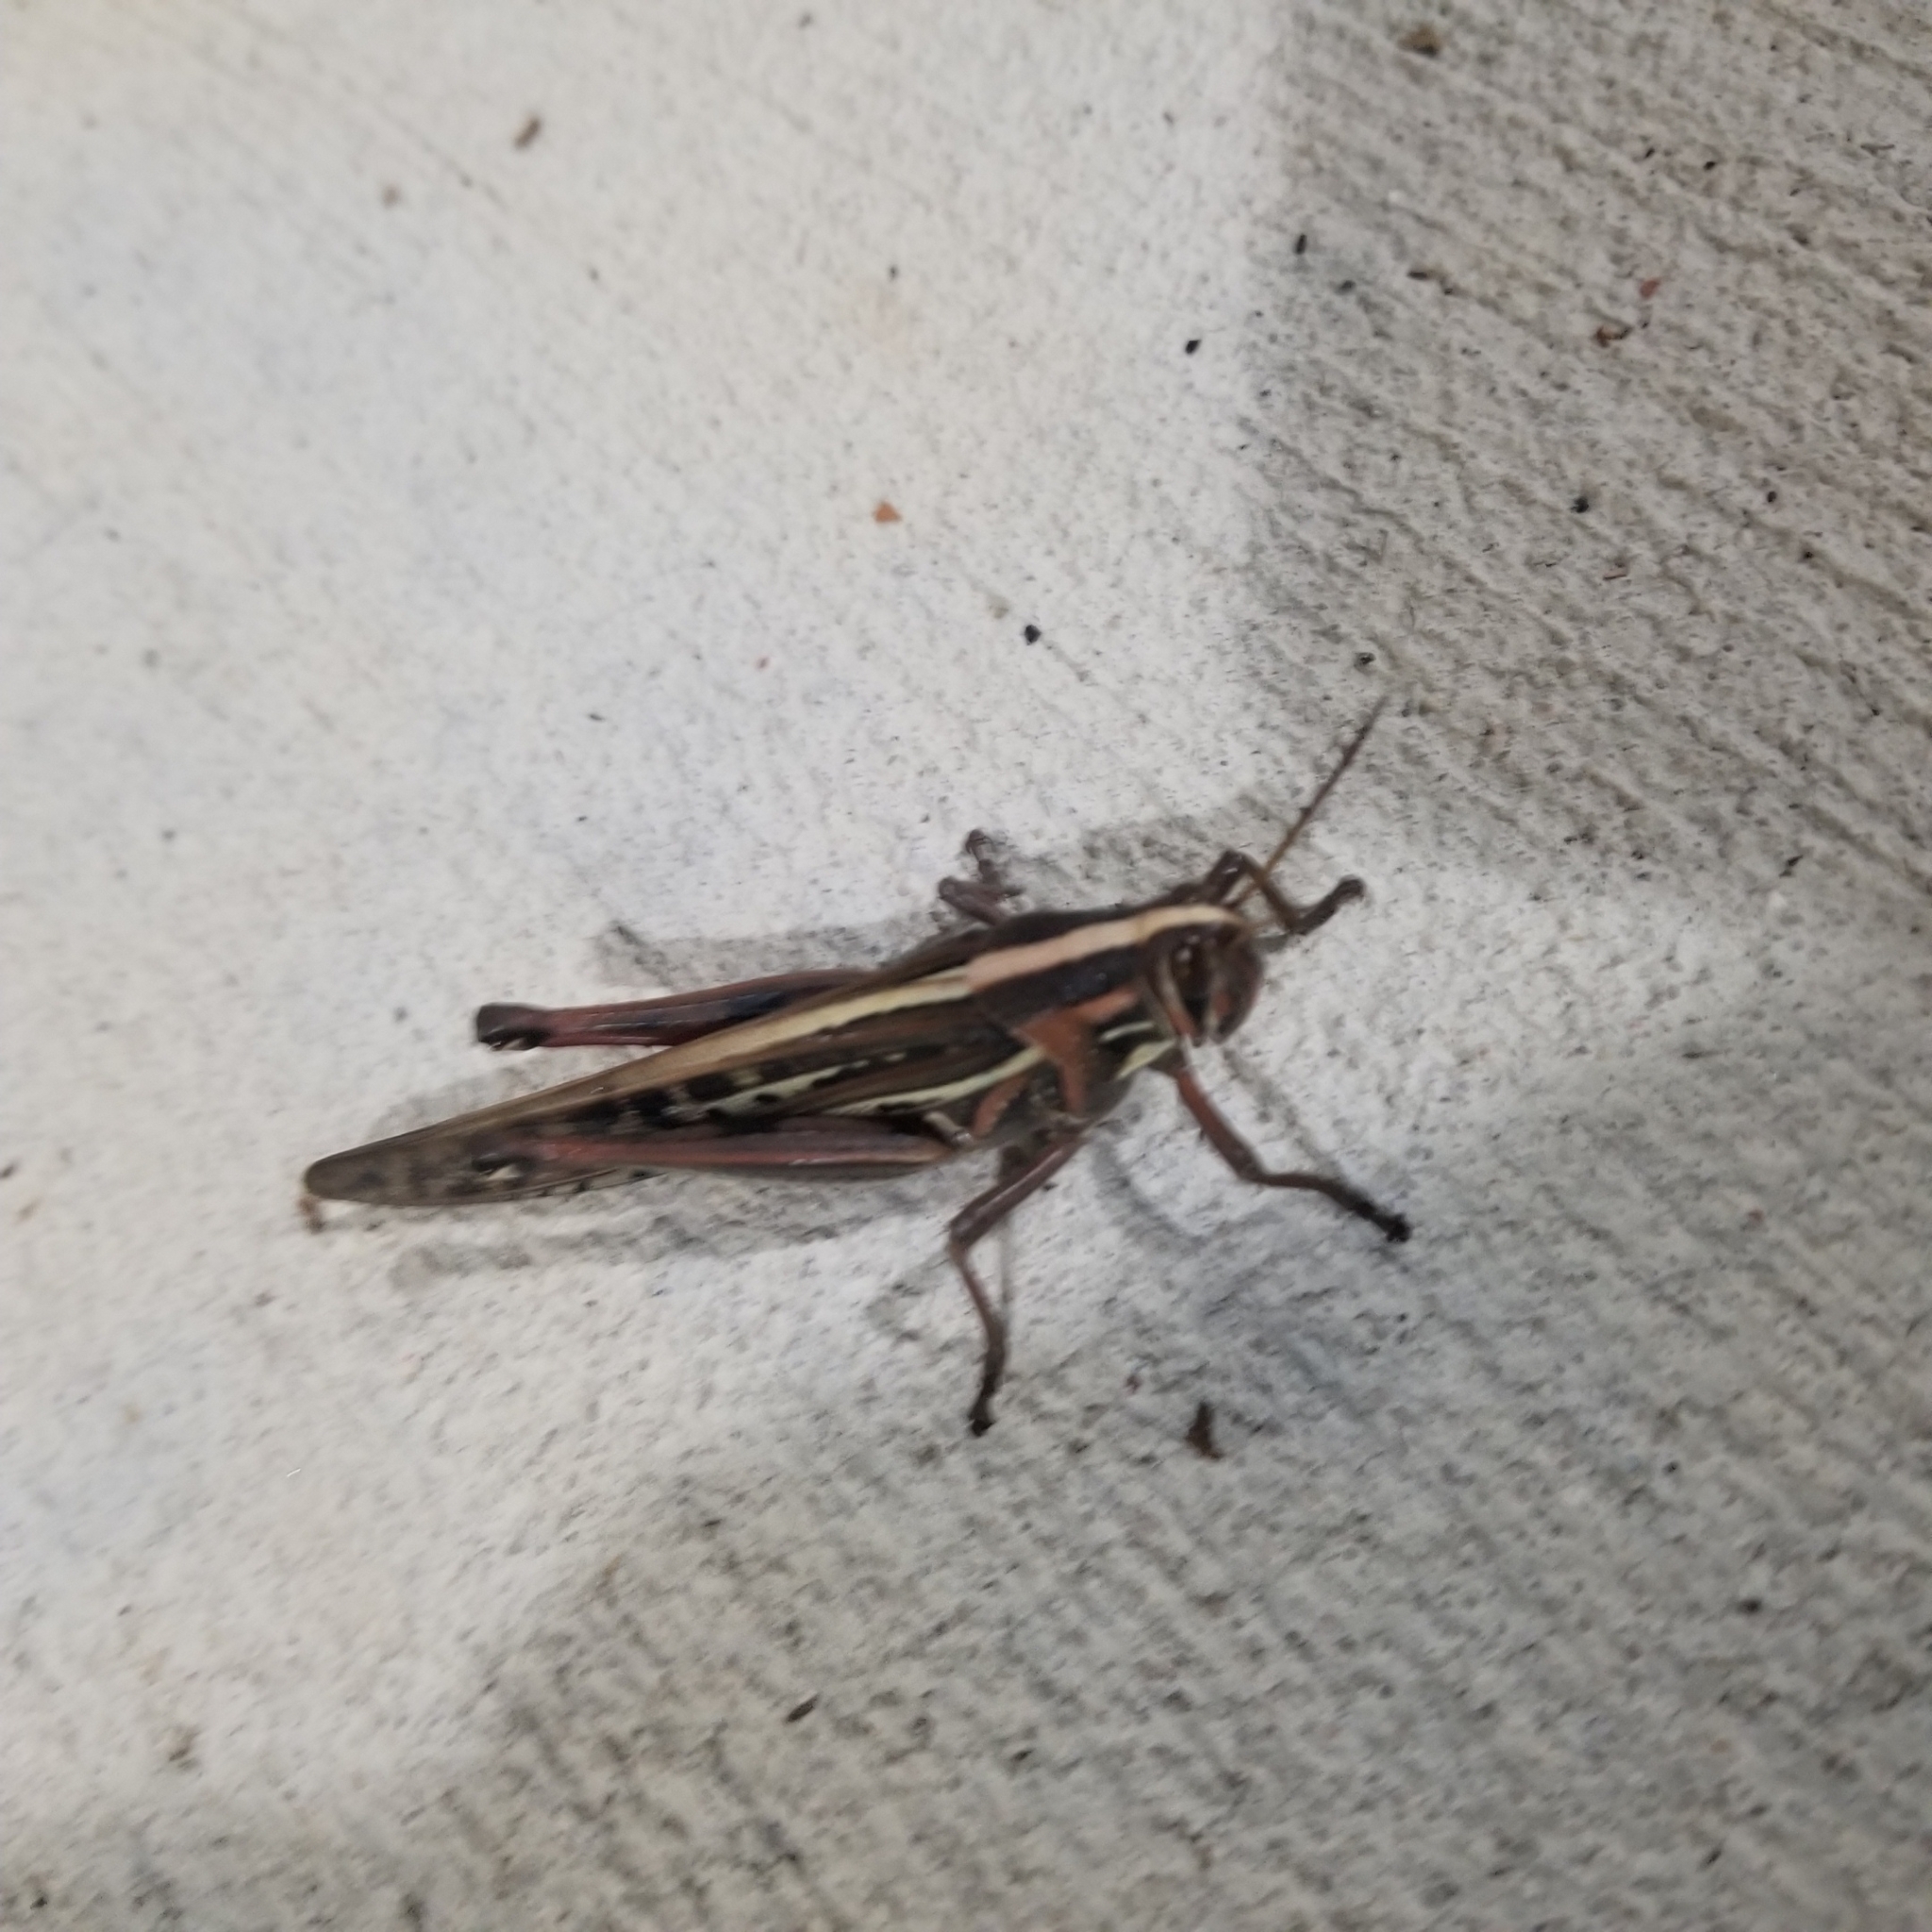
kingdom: Animalia
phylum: Arthropoda
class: Insecta
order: Orthoptera
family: Acrididae
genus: Schistocerca
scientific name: Schistocerca americana
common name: American bird locust
